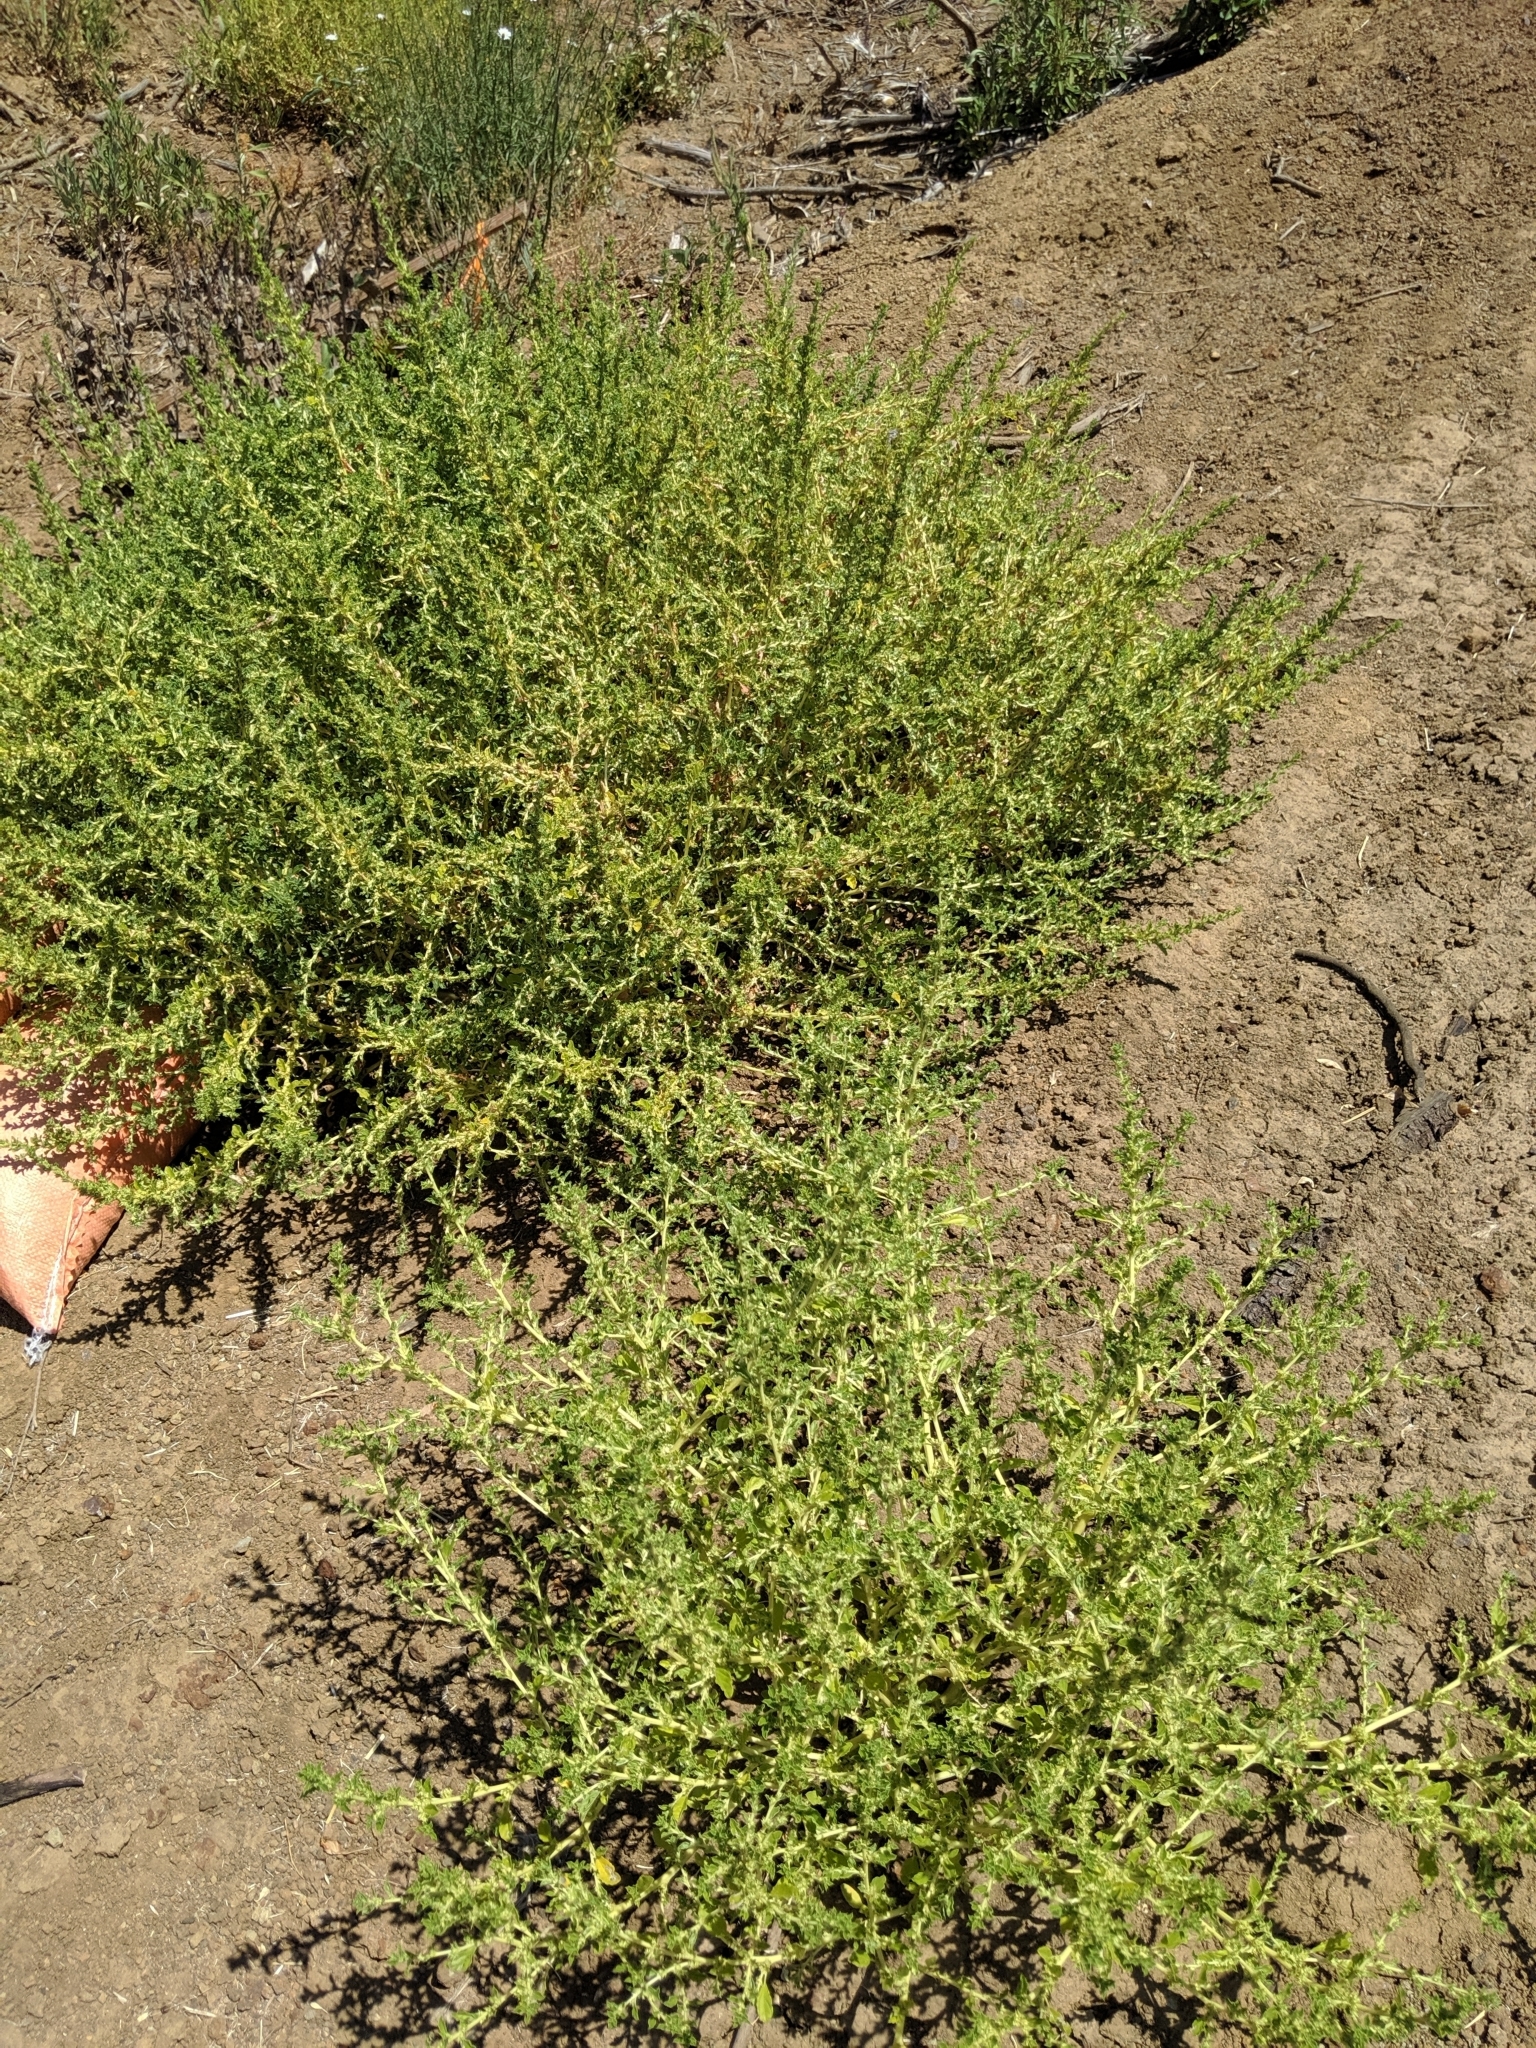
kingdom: Plantae
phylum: Tracheophyta
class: Magnoliopsida
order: Caryophyllales
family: Amaranthaceae
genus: Amaranthus
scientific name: Amaranthus albus
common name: White pigweed
